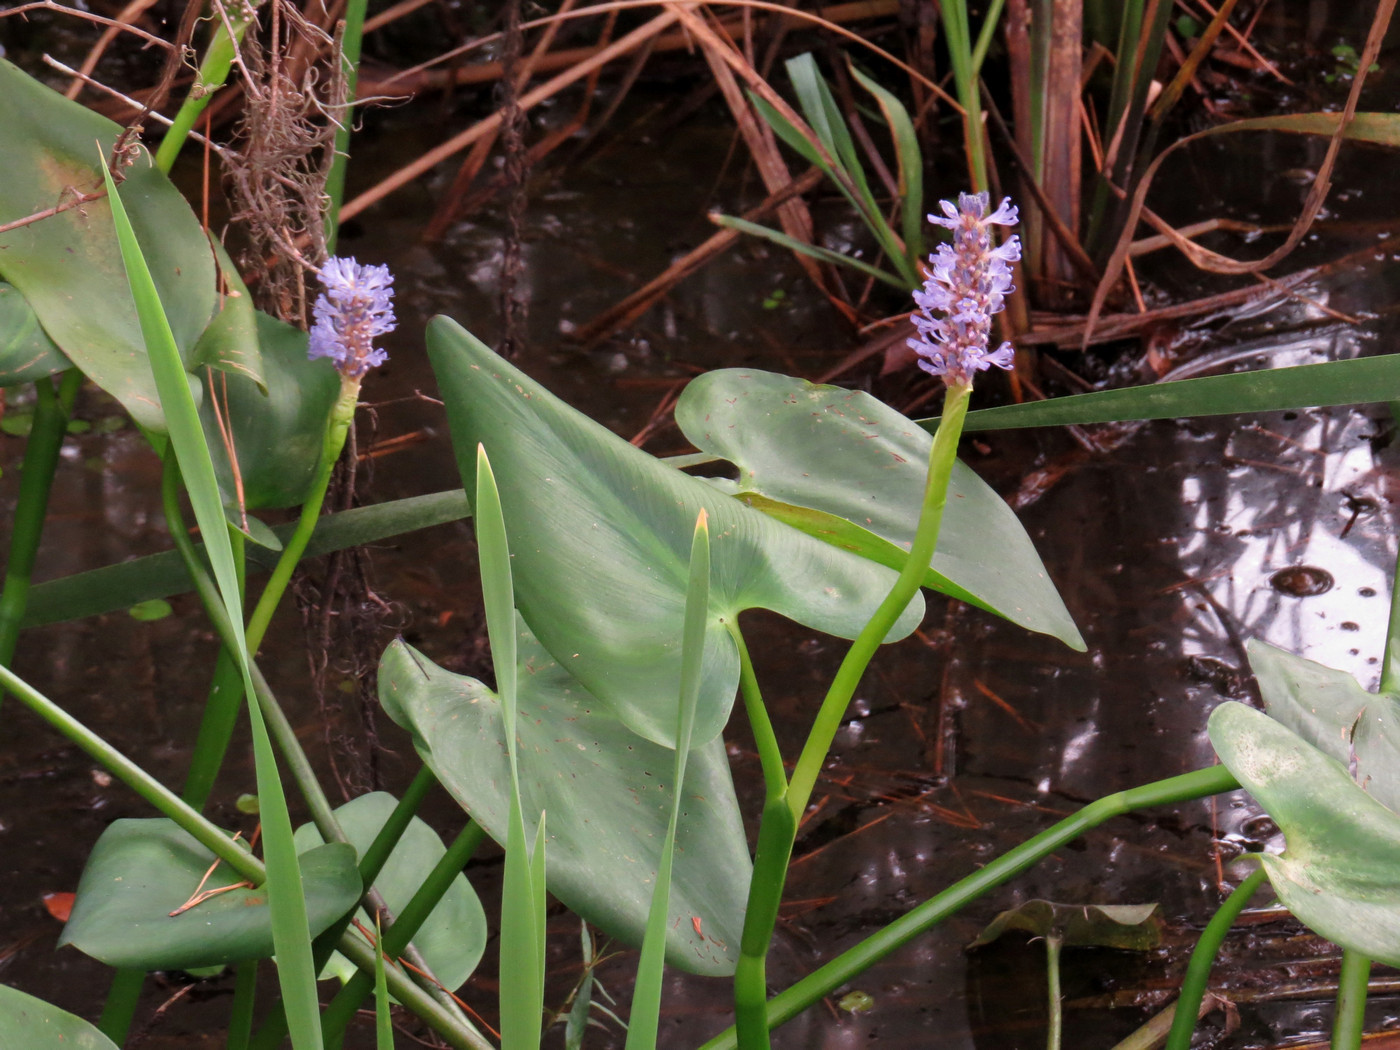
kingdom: Plantae
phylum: Tracheophyta
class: Liliopsida
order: Commelinales
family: Pontederiaceae
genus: Pontederia
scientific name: Pontederia cordata
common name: Pickerelweed
